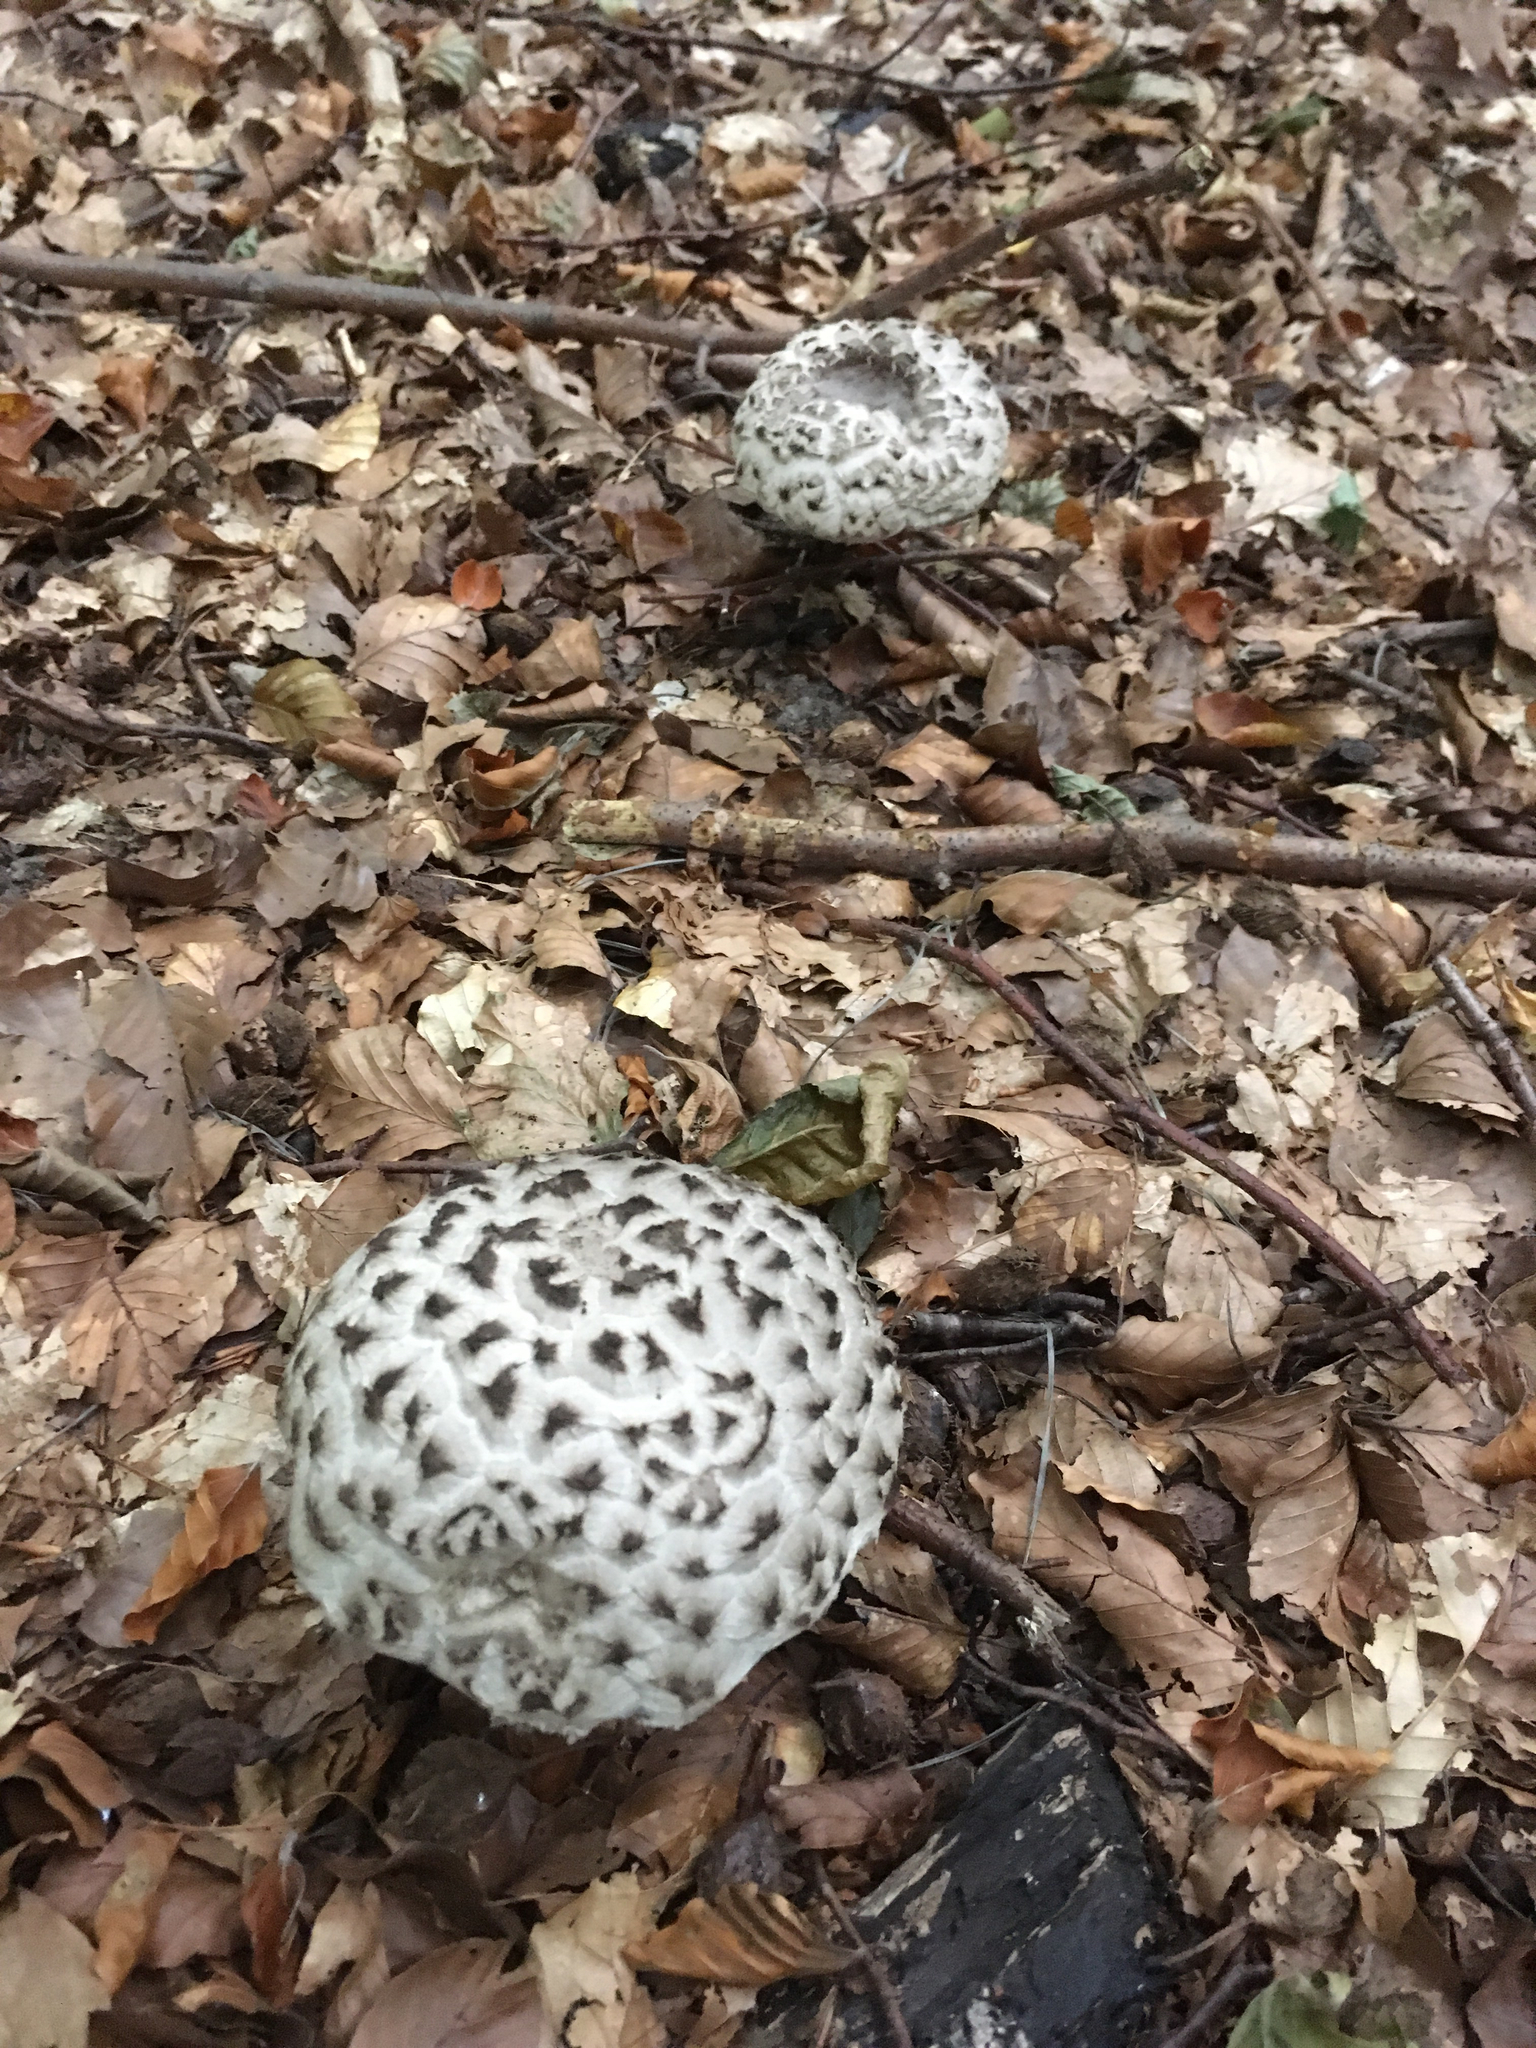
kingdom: Fungi
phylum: Basidiomycota
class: Agaricomycetes
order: Boletales
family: Boletaceae
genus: Strobilomyces
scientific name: Strobilomyces strobilaceus
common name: Old man of the woods
